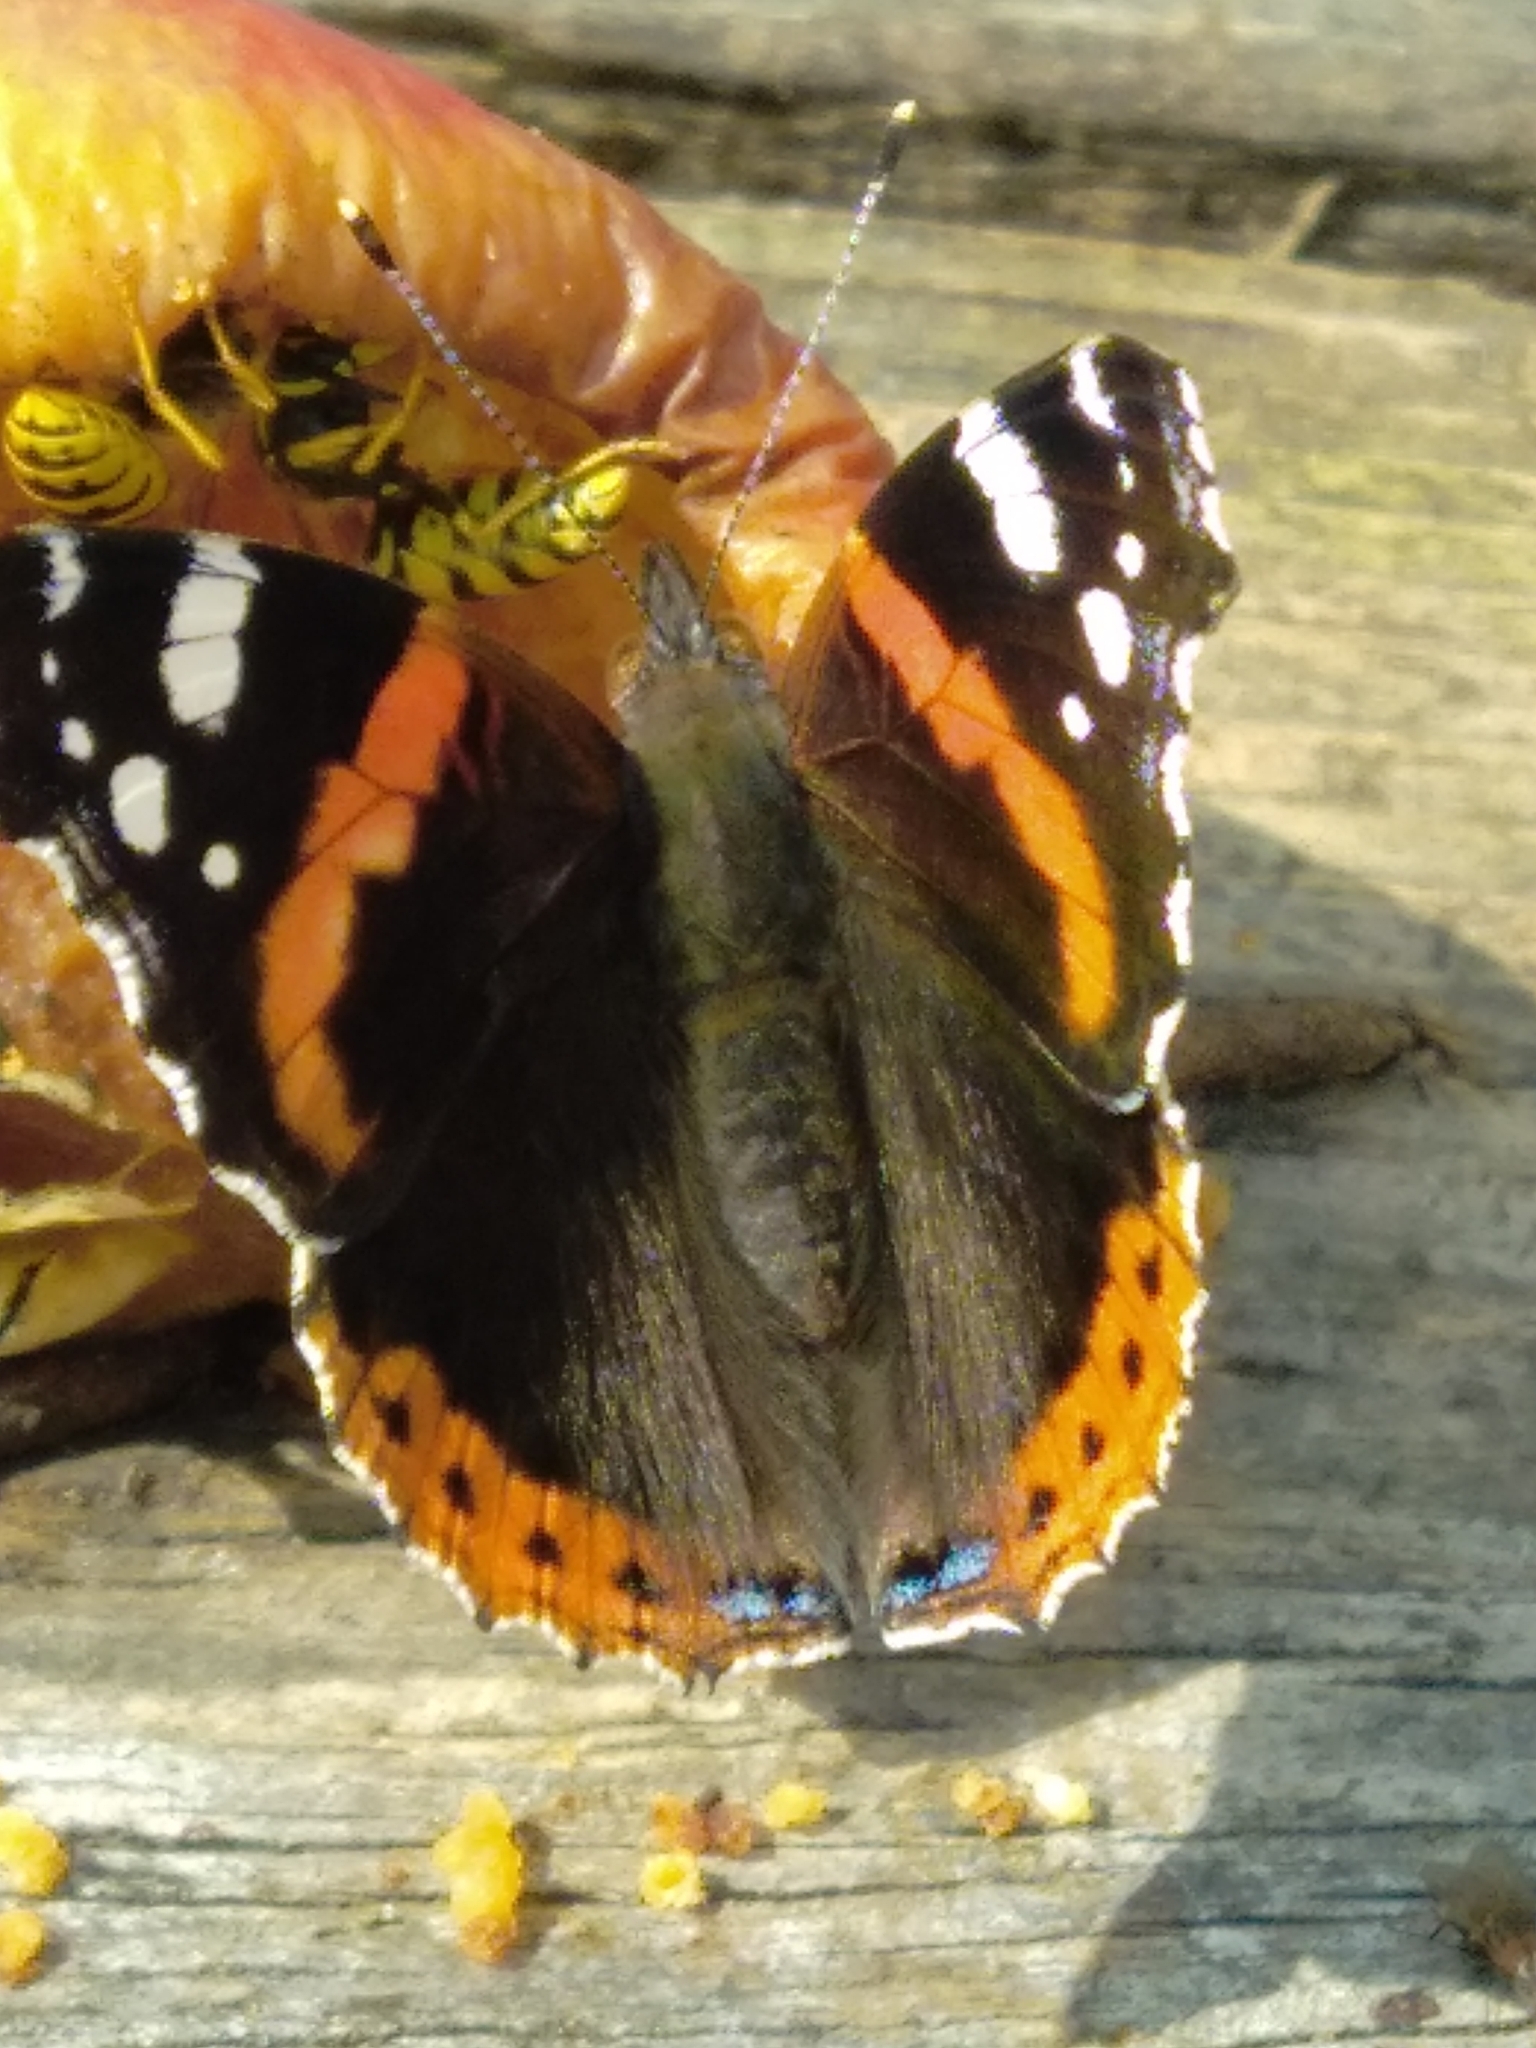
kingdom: Animalia
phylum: Arthropoda
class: Insecta
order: Lepidoptera
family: Nymphalidae
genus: Vanessa
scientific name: Vanessa atalanta
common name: Red admiral
